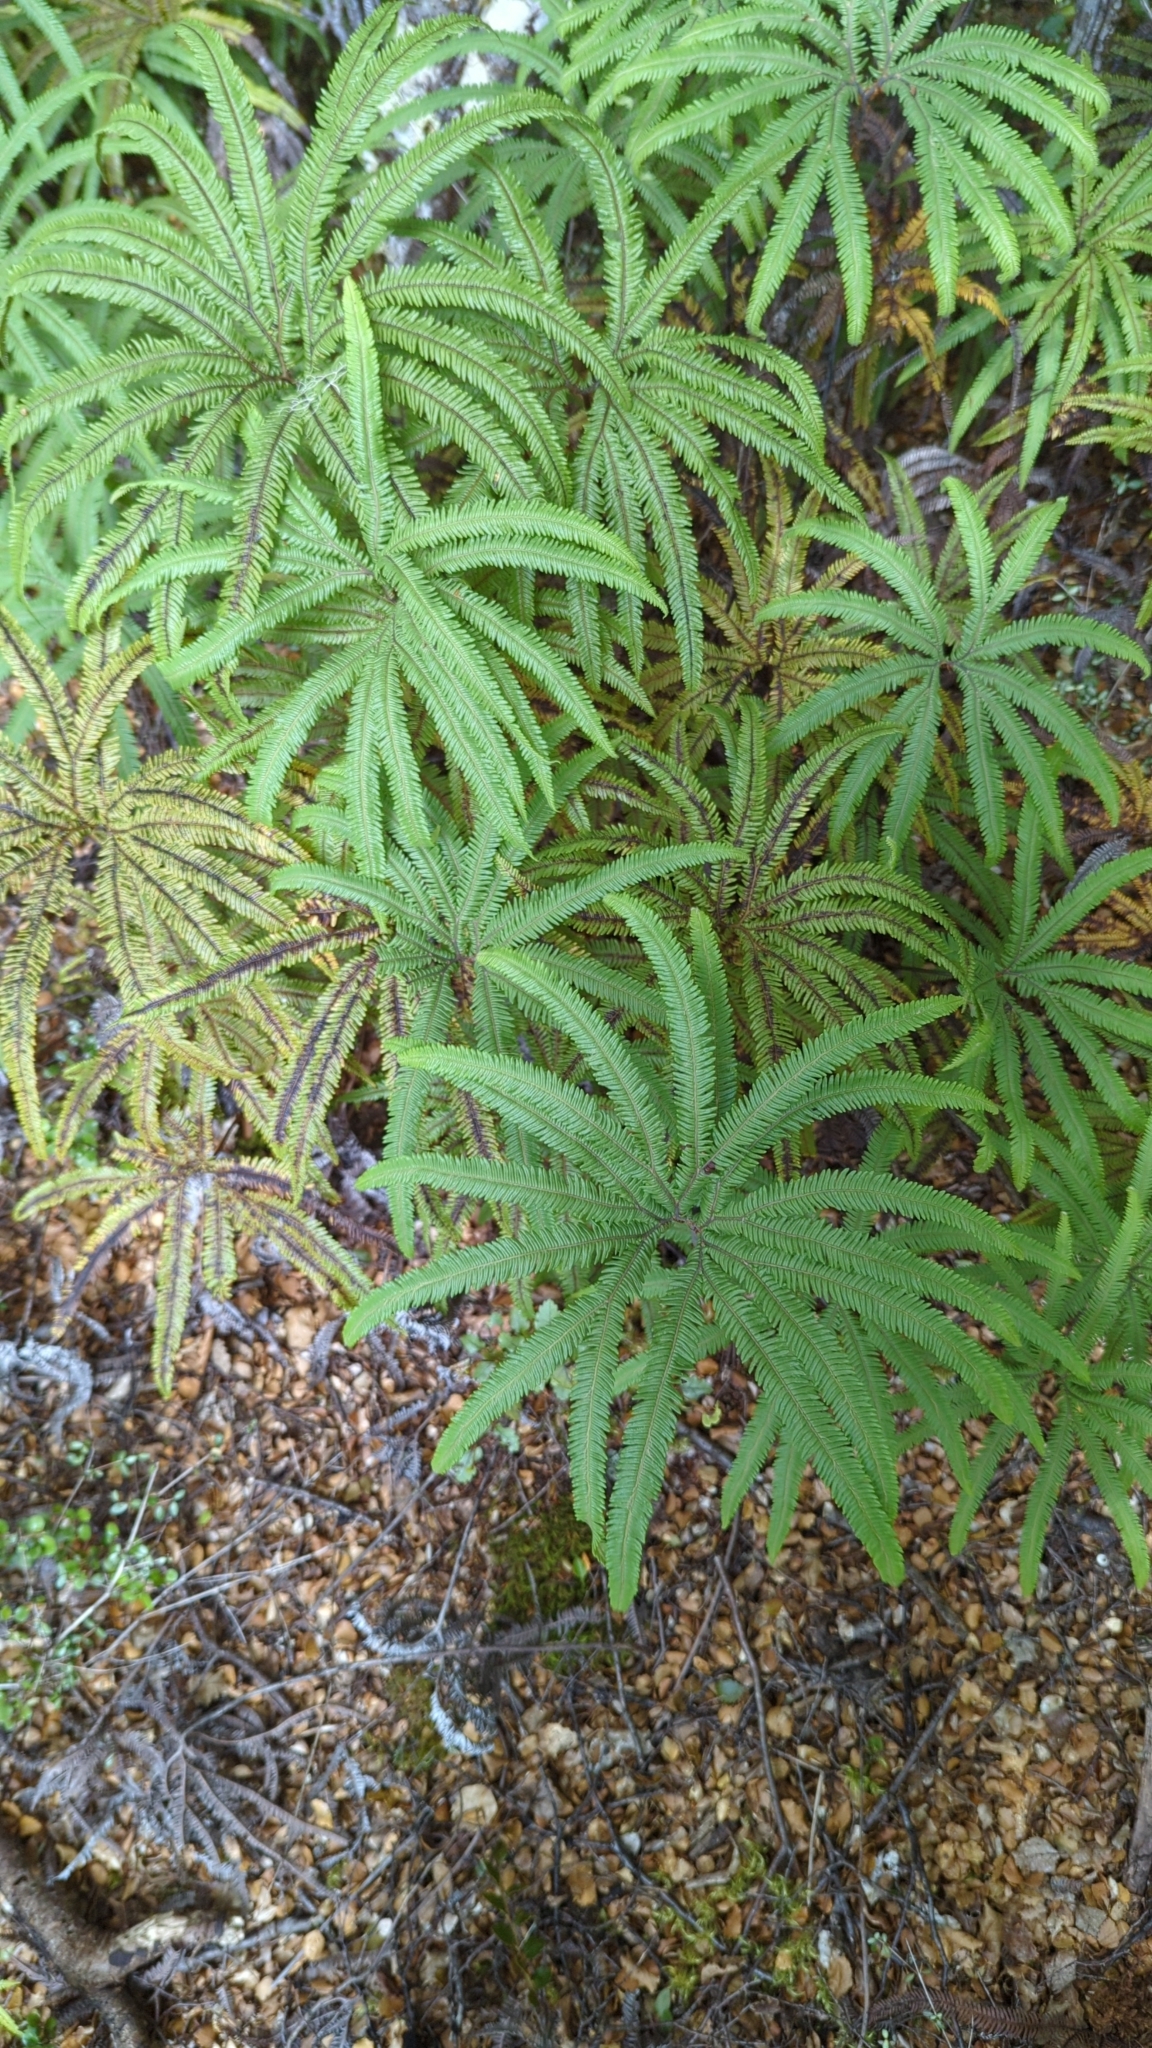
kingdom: Plantae
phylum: Tracheophyta
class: Polypodiopsida
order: Gleicheniales
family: Gleicheniaceae
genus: Sticherus
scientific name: Sticherus cunninghamii
